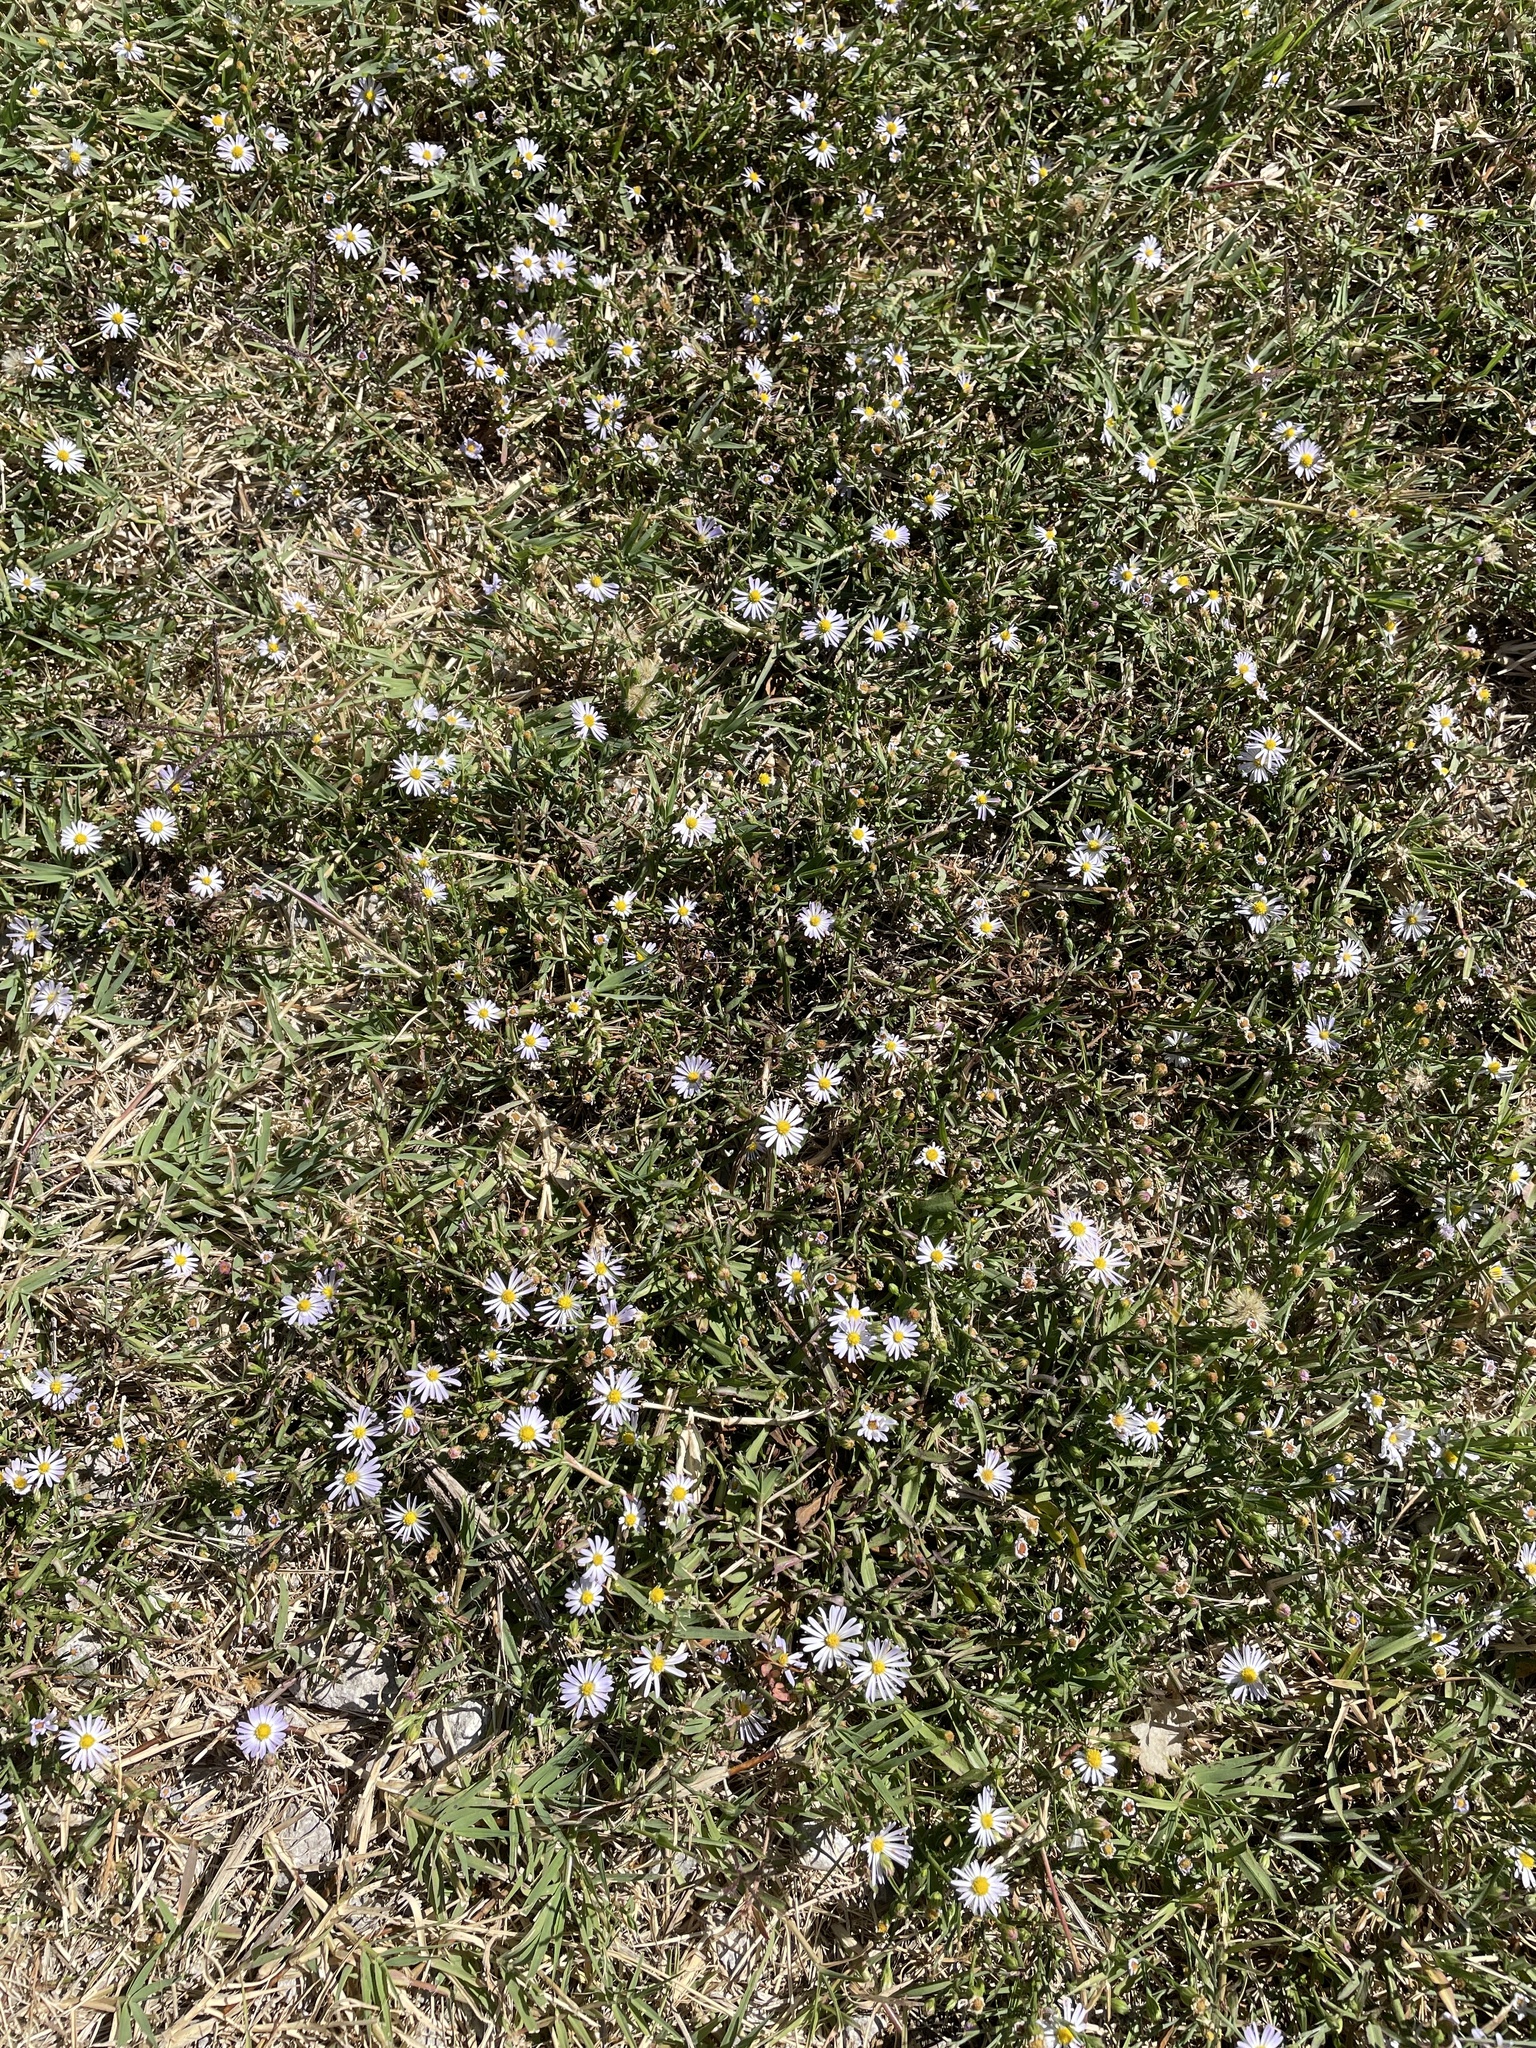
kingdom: Plantae
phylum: Tracheophyta
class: Magnoliopsida
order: Asterales
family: Asteraceae
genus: Symphyotrichum
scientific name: Symphyotrichum divaricatum
